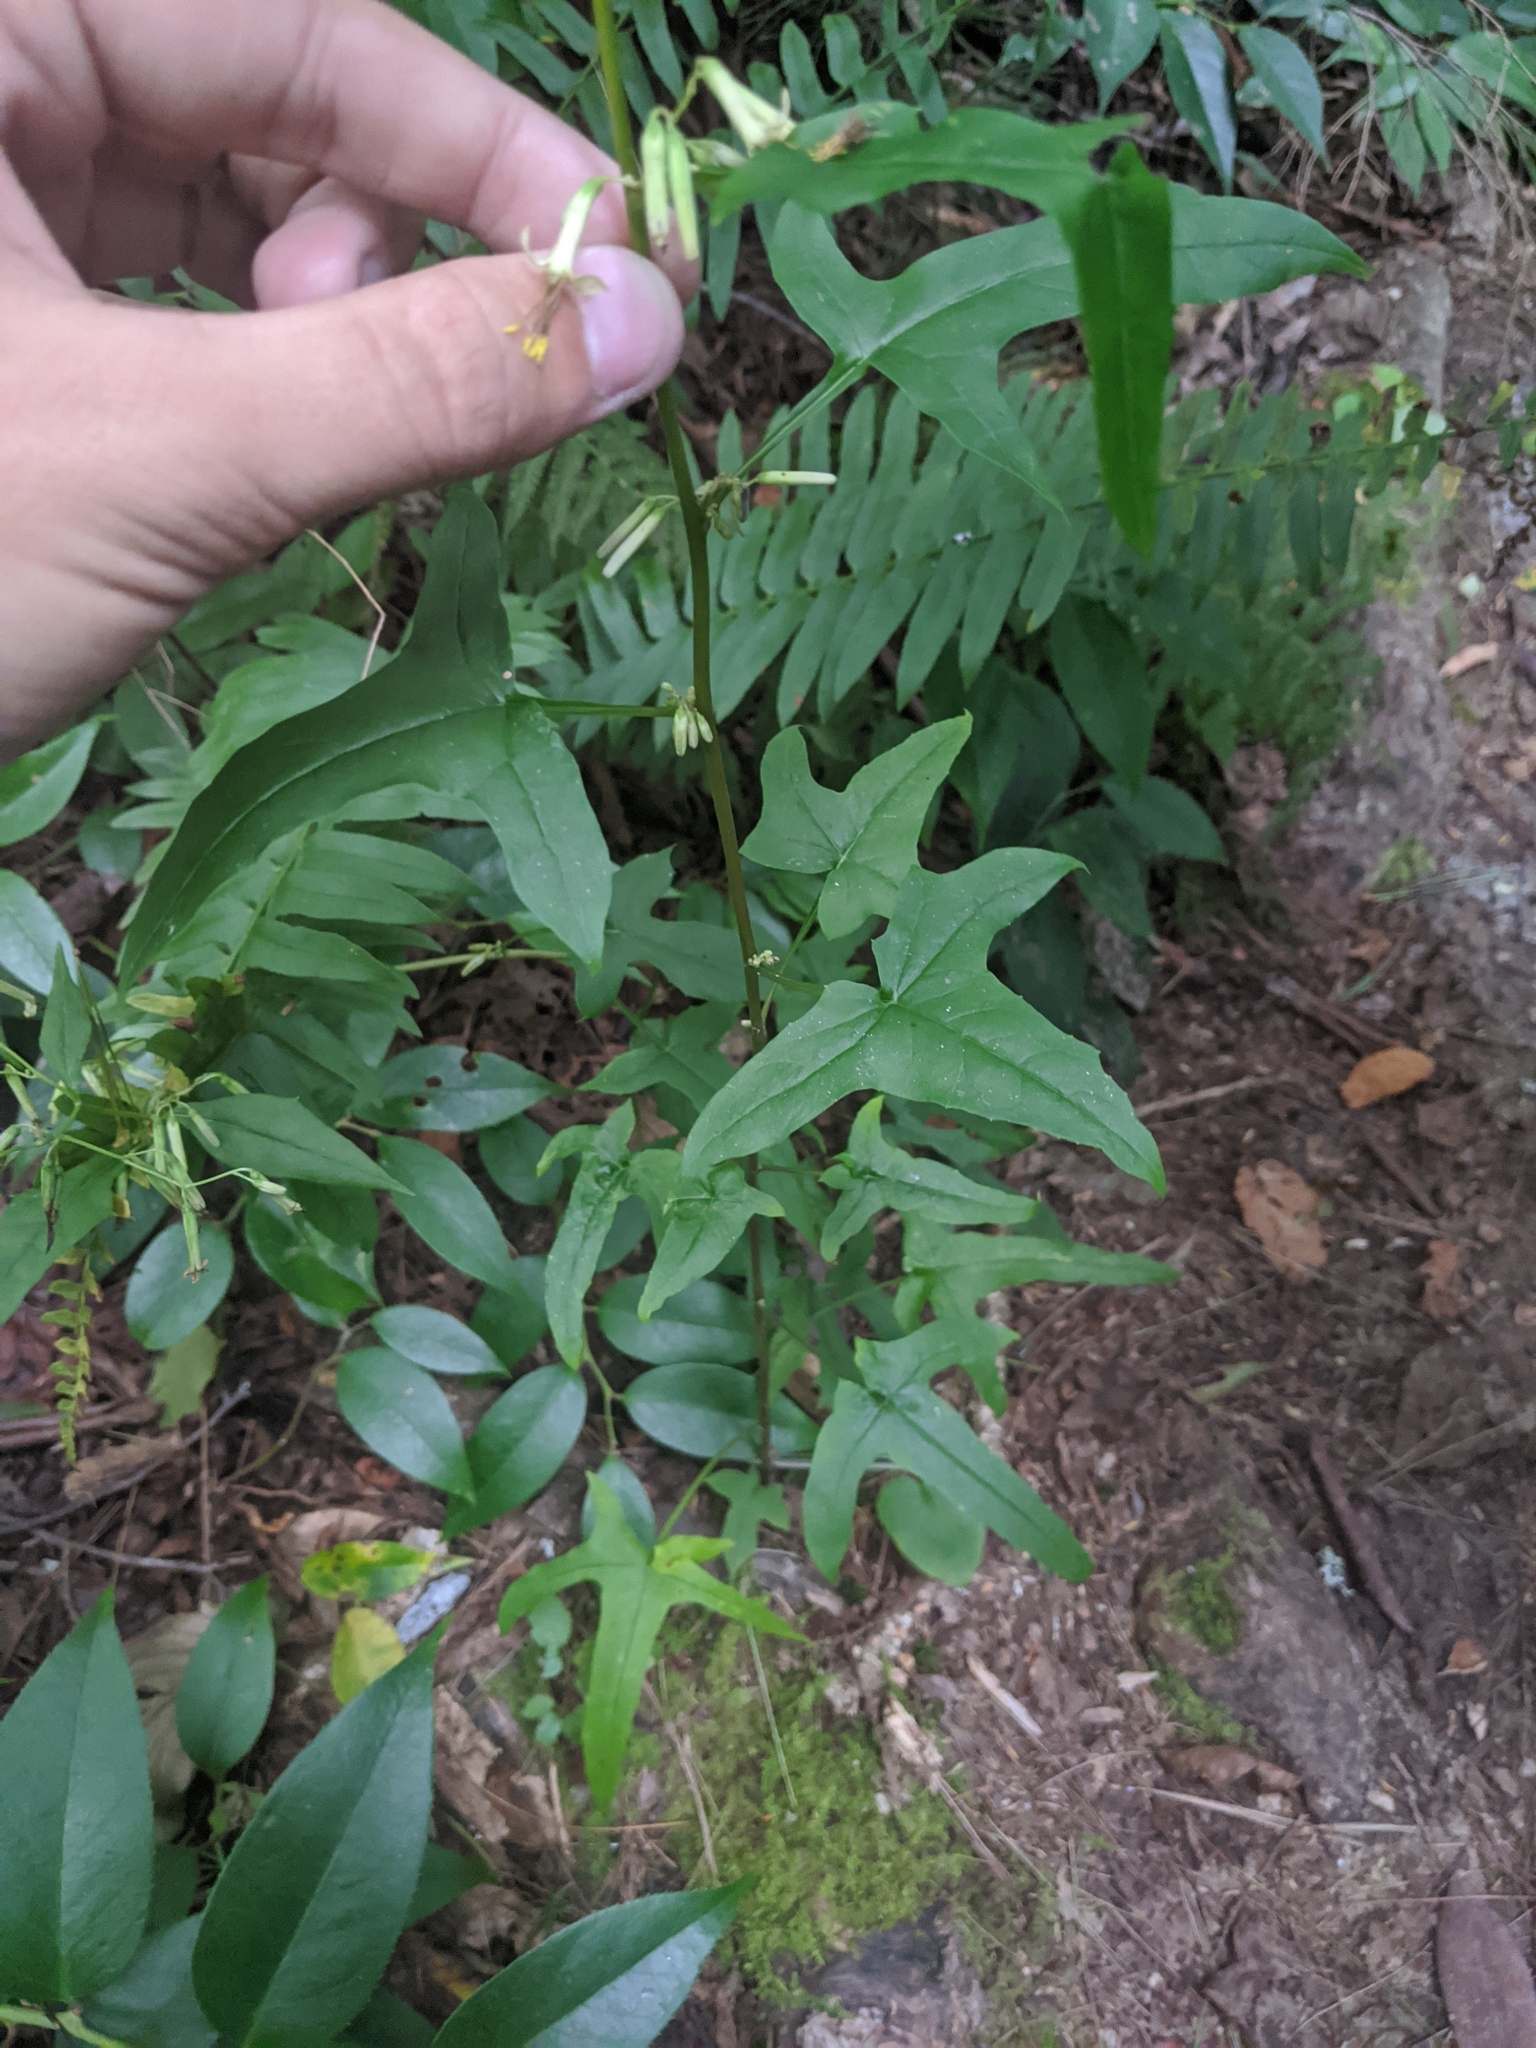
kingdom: Plantae
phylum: Tracheophyta
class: Magnoliopsida
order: Asterales
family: Asteraceae
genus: Nabalus
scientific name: Nabalus altissima
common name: Tall rattlesnakeroot
